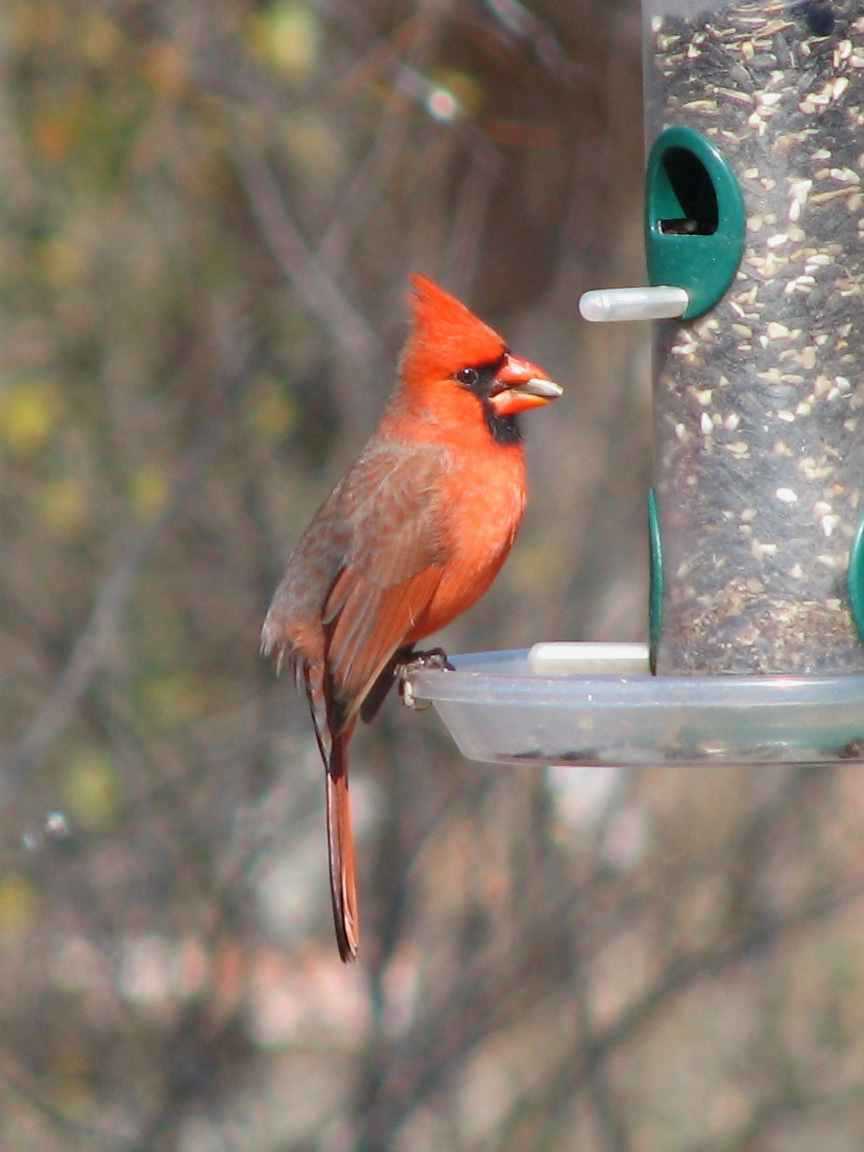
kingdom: Animalia
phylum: Chordata
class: Aves
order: Passeriformes
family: Cardinalidae
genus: Cardinalis
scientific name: Cardinalis cardinalis
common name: Northern cardinal
